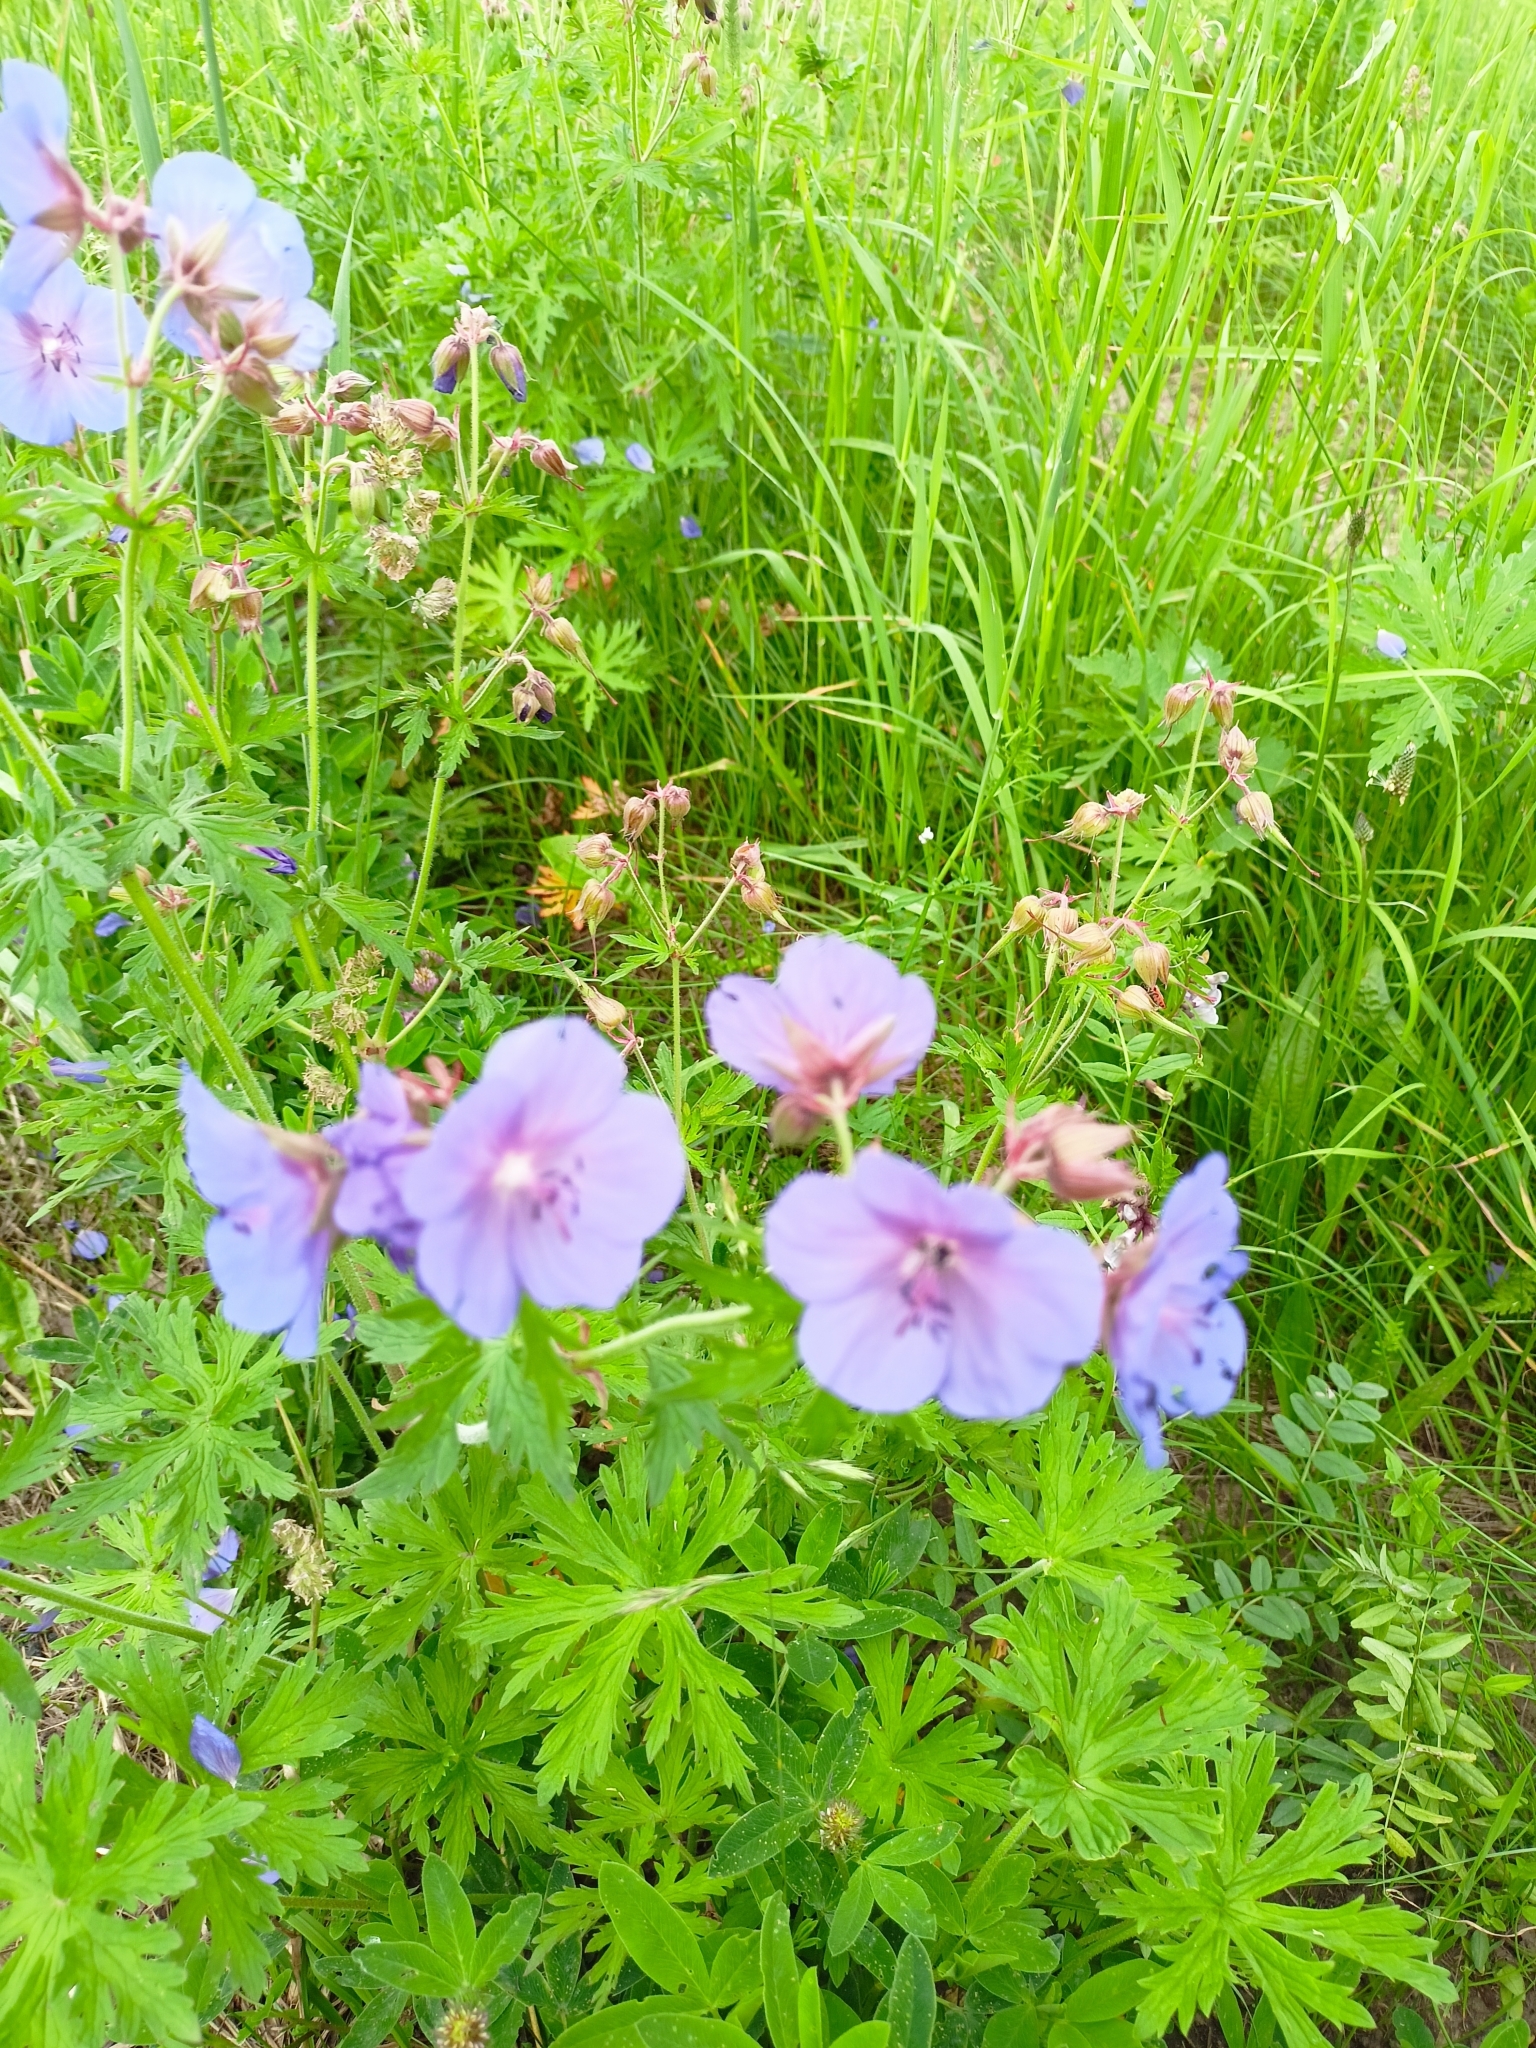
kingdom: Plantae
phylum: Tracheophyta
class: Magnoliopsida
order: Geraniales
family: Geraniaceae
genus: Geranium
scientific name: Geranium pratense
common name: Meadow crane's-bill
